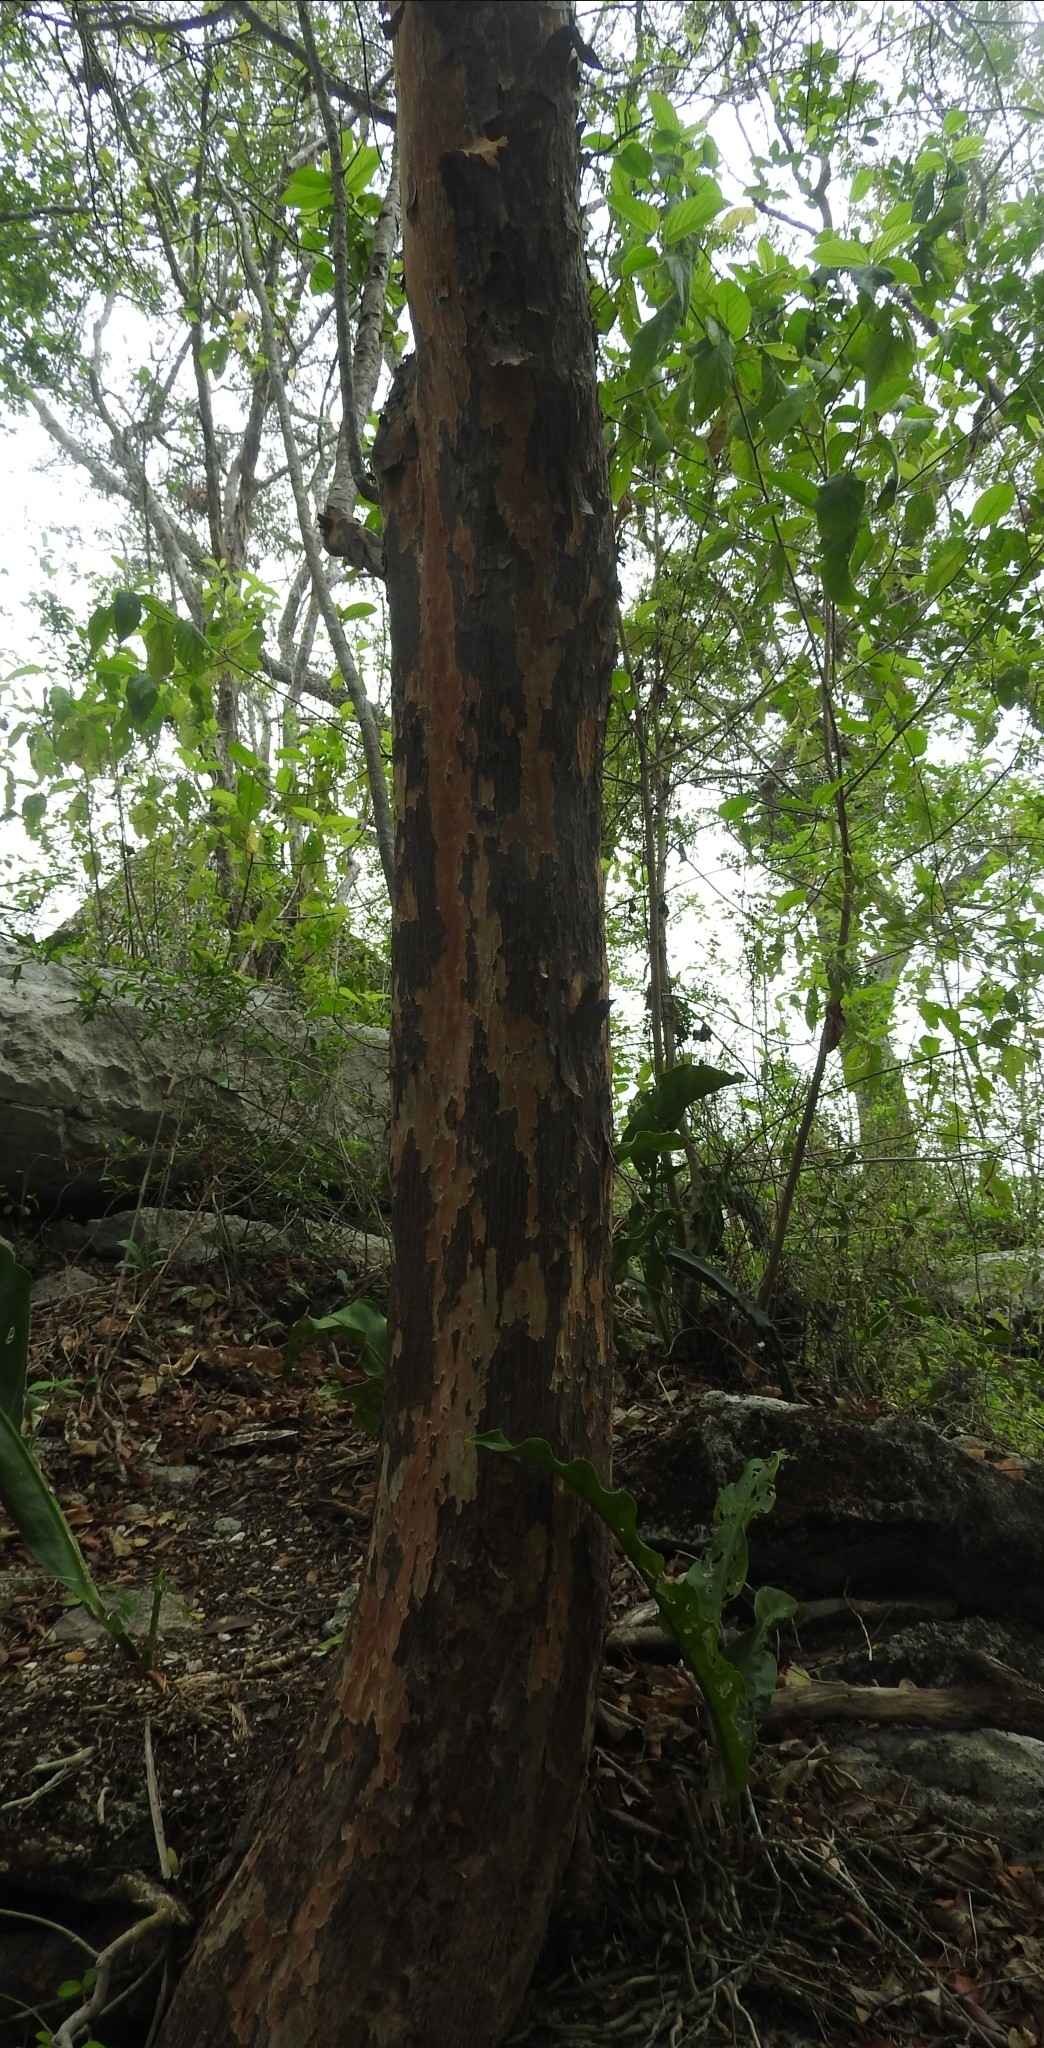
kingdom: Plantae
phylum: Tracheophyta
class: Magnoliopsida
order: Sapindales
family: Burseraceae
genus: Bursera
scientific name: Bursera simaruba
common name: Turpentine tree
